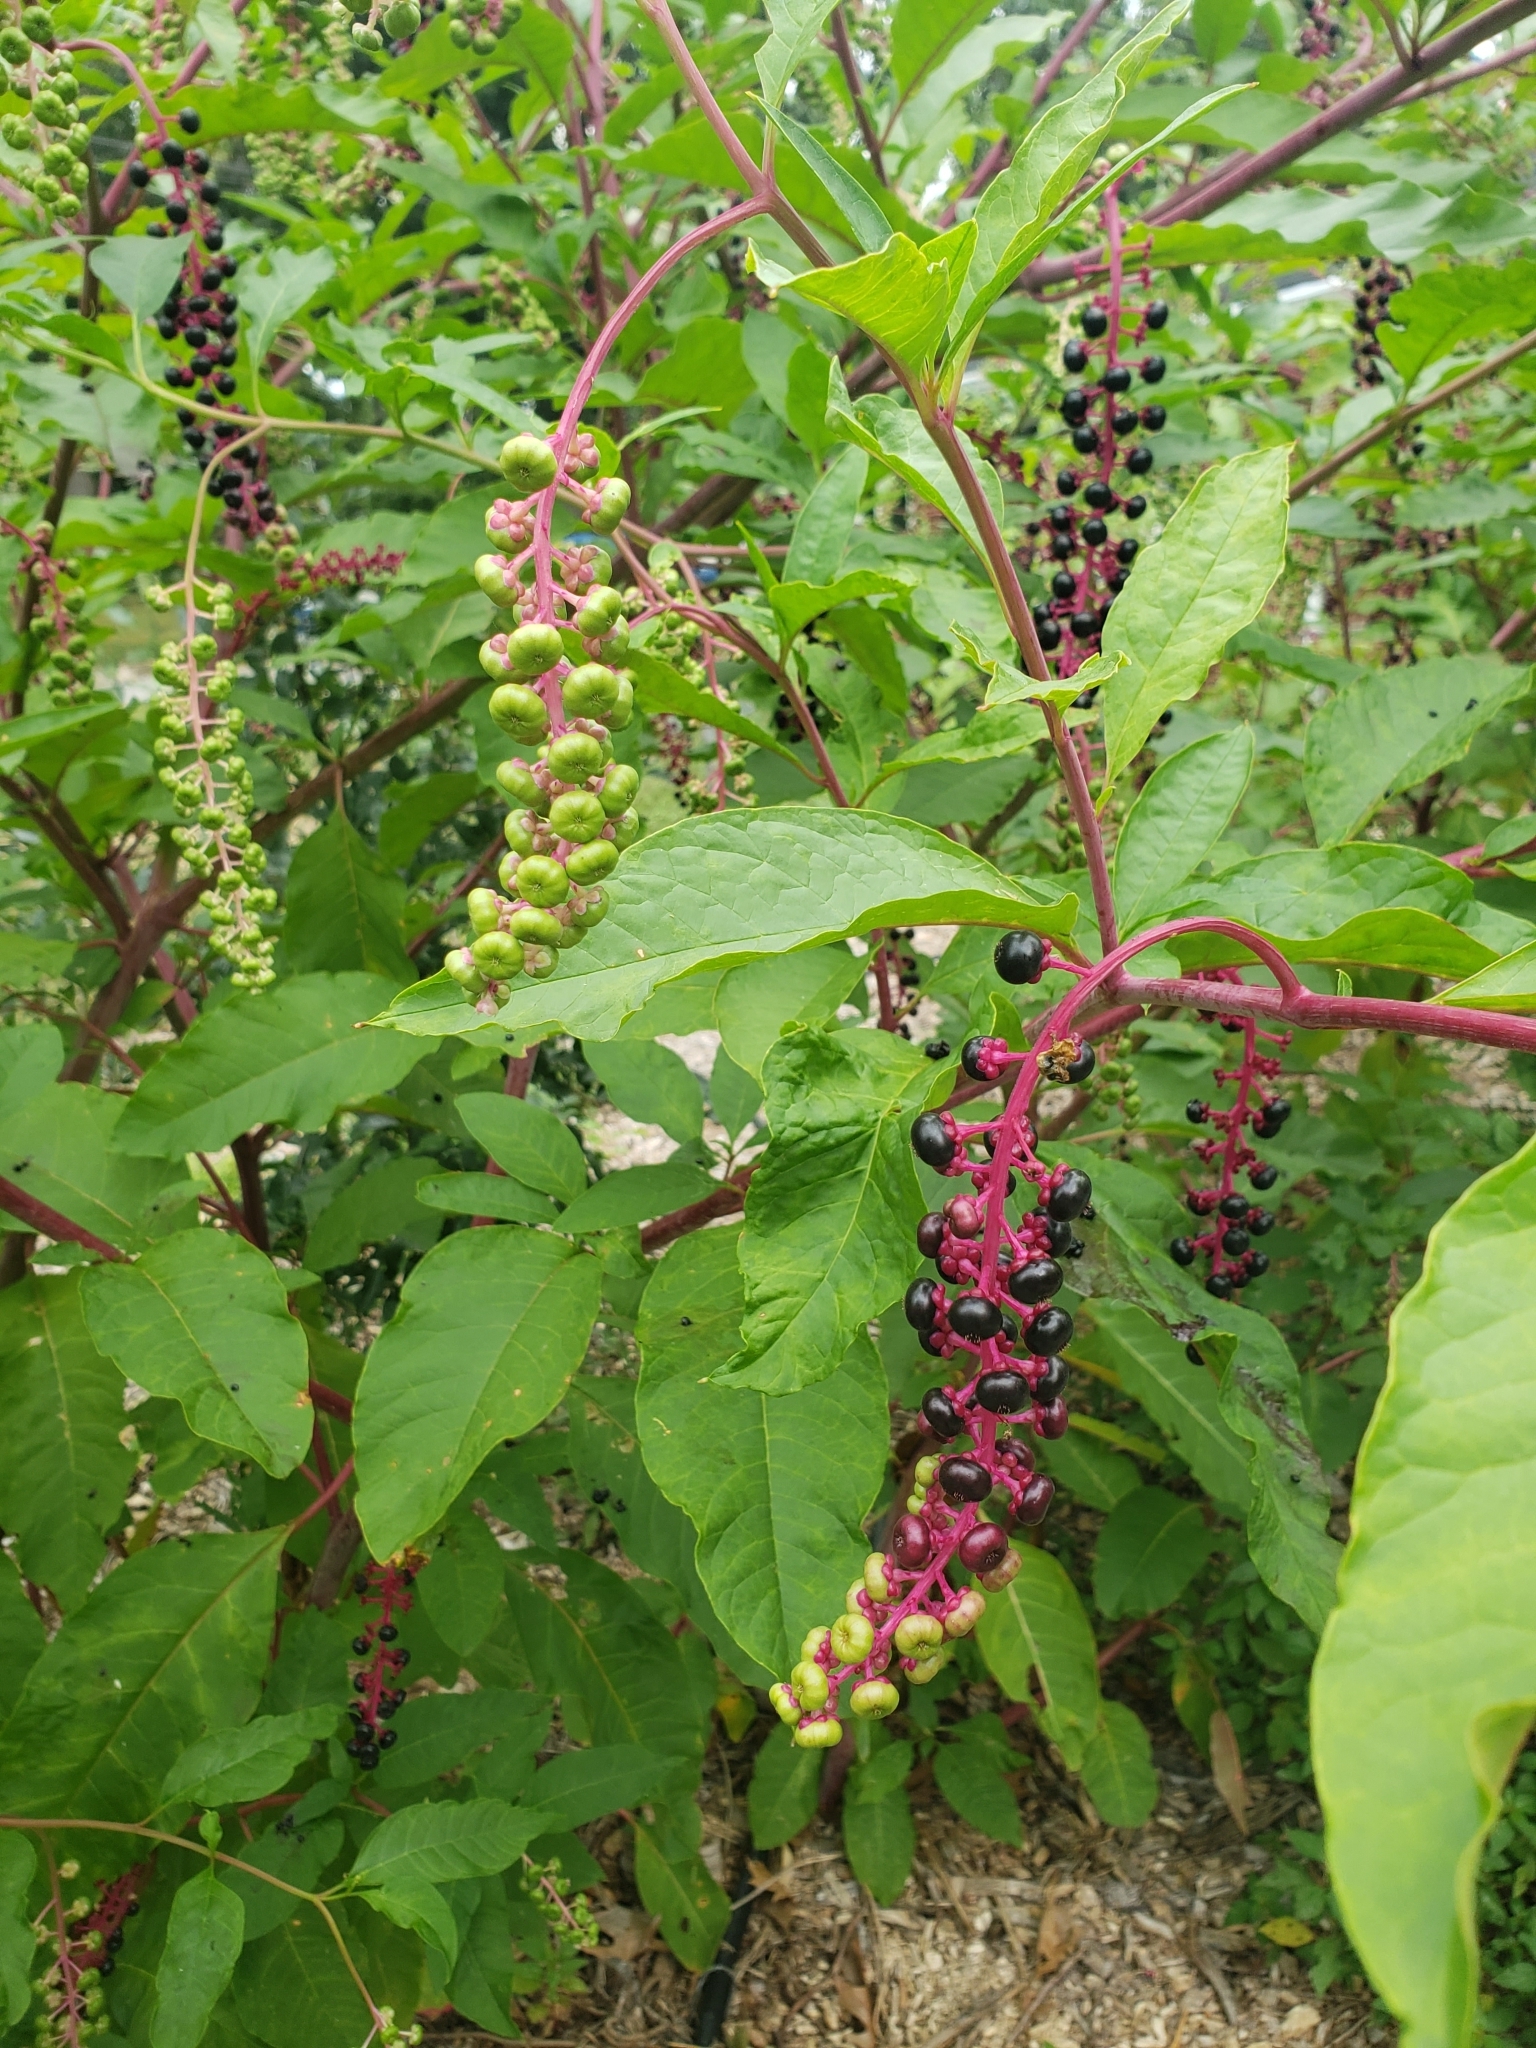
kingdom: Plantae
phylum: Tracheophyta
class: Magnoliopsida
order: Caryophyllales
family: Phytolaccaceae
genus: Phytolacca
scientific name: Phytolacca americana
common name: American pokeweed
